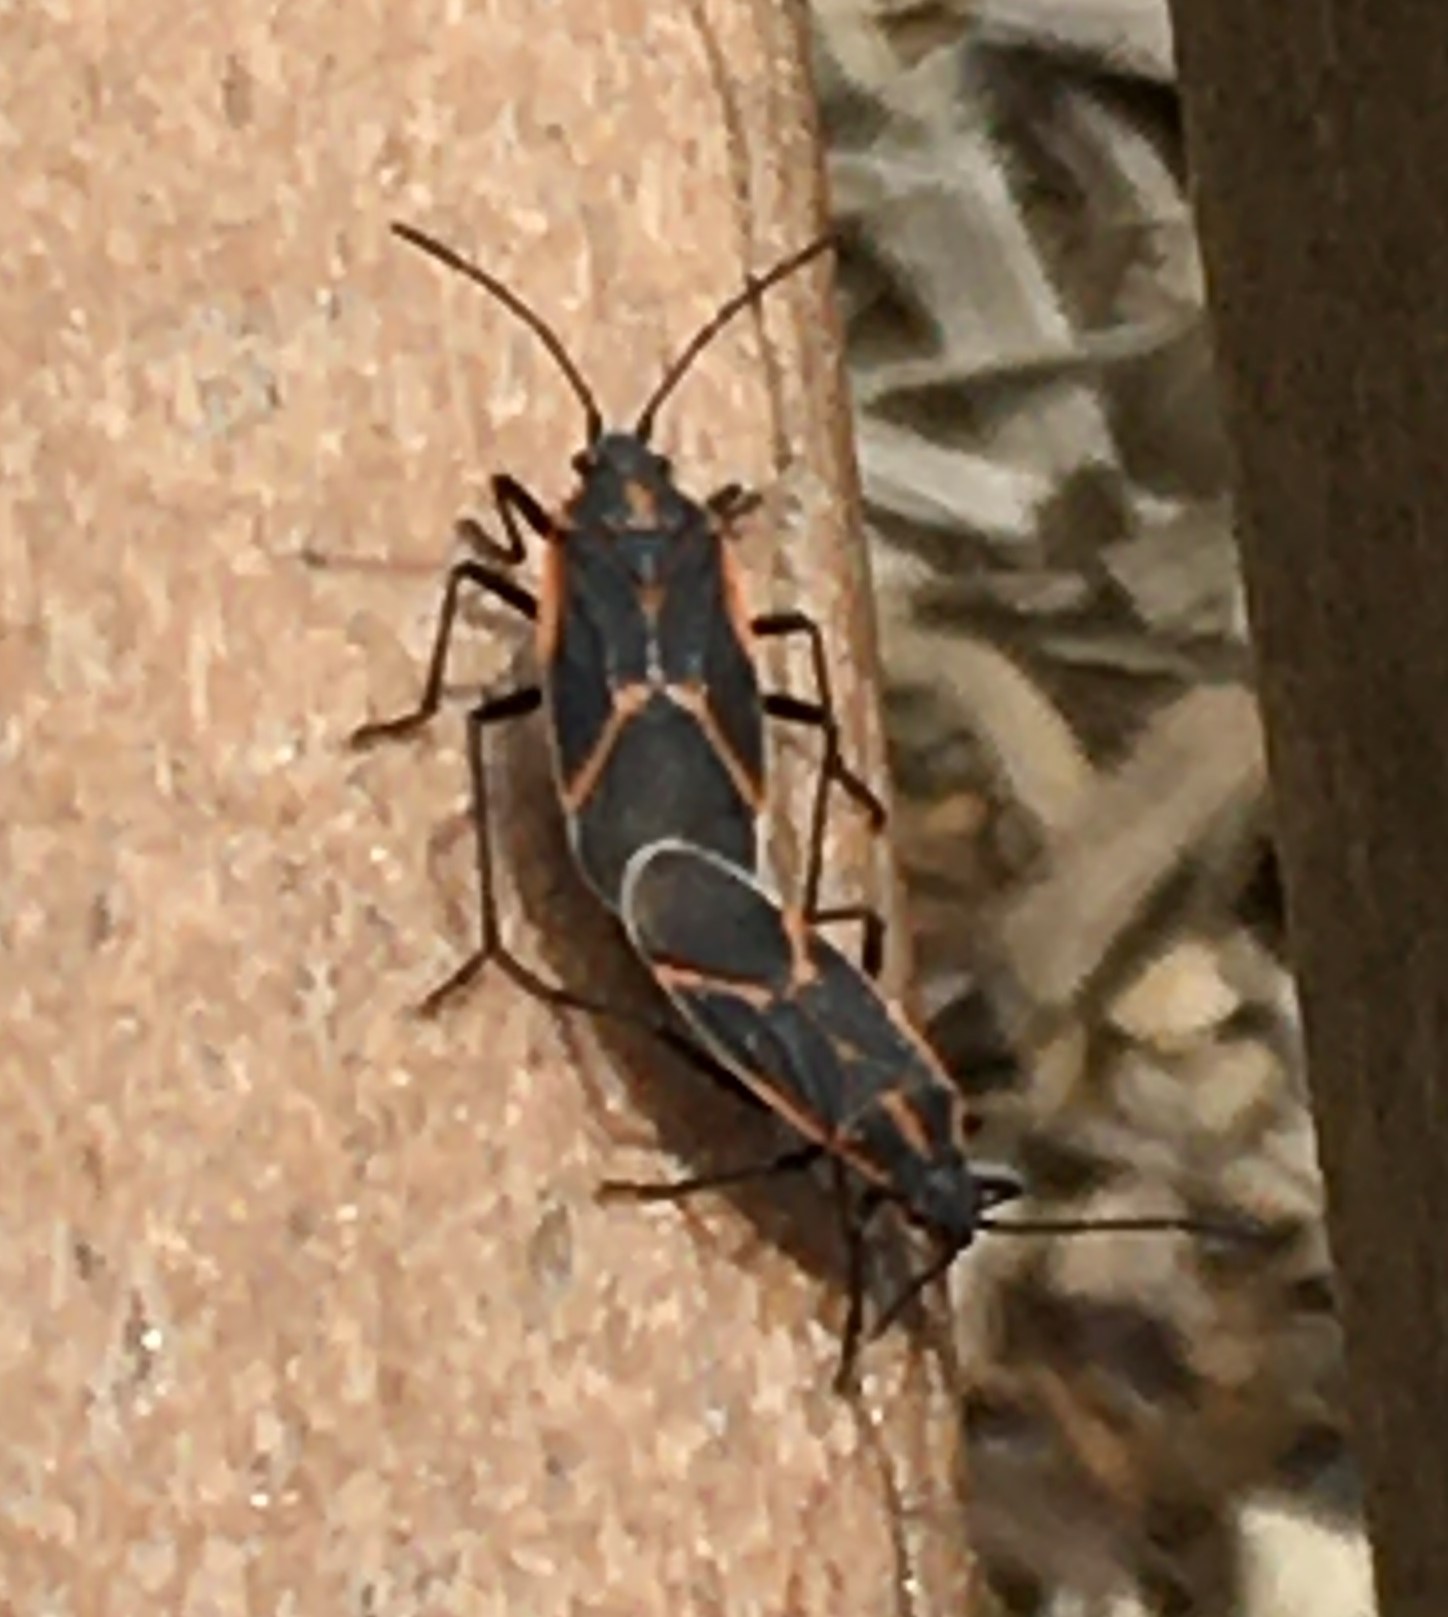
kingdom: Animalia
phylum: Arthropoda
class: Insecta
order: Hemiptera
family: Rhopalidae
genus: Boisea
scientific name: Boisea trivittata
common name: Boxelder bug
